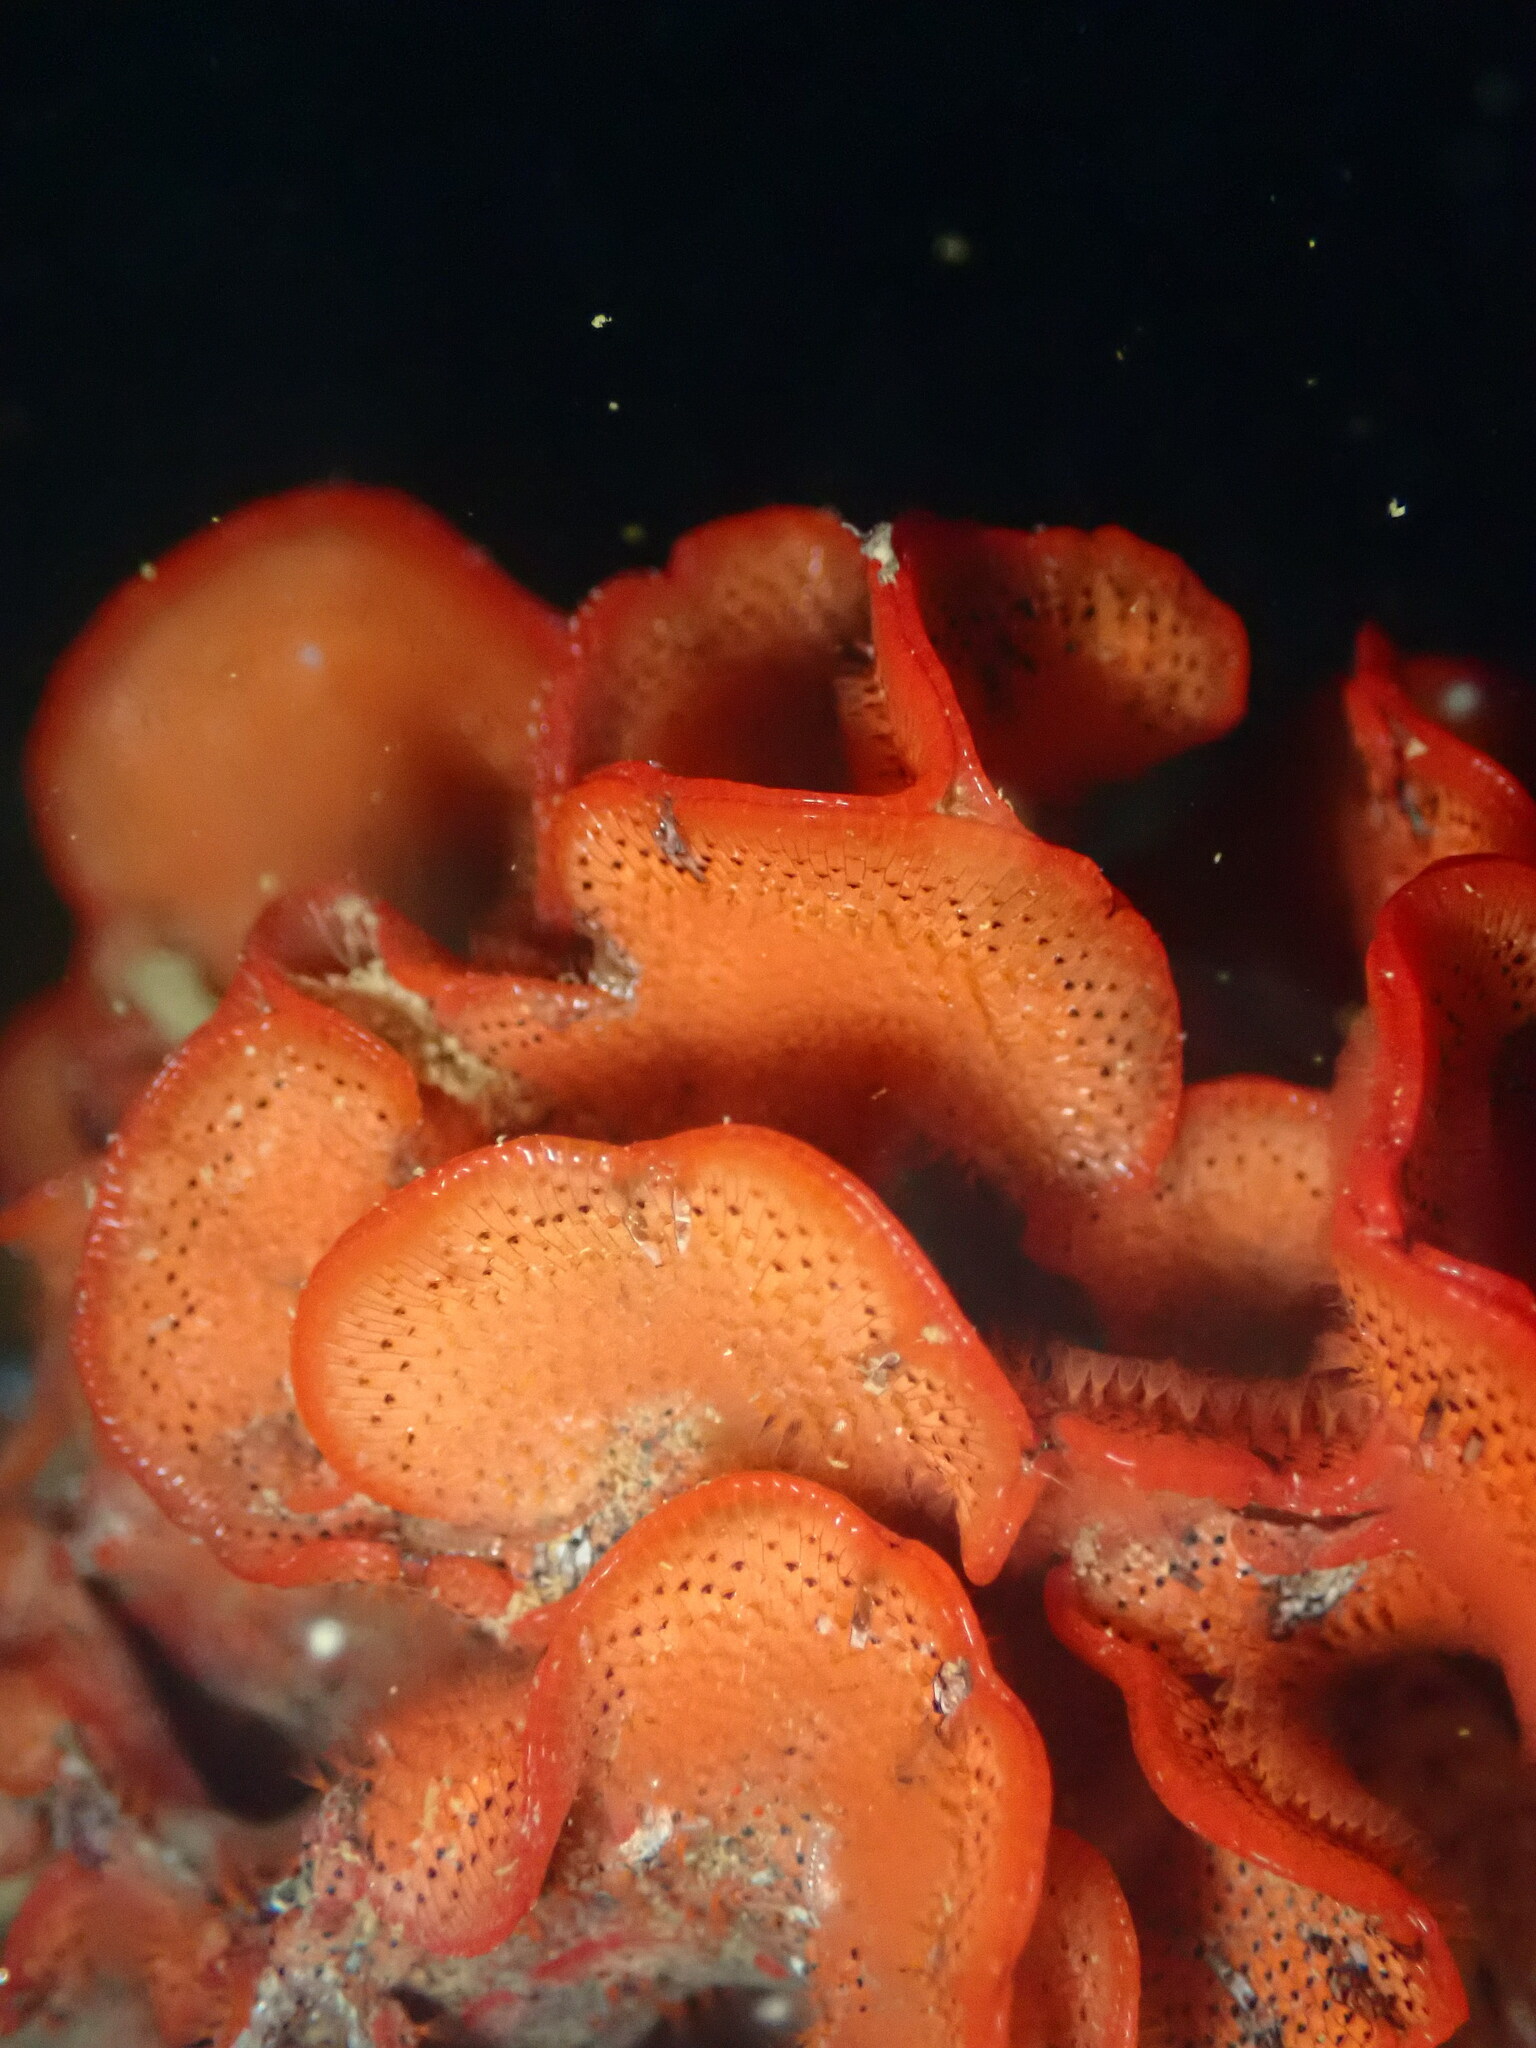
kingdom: Animalia
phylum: Bryozoa
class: Gymnolaemata
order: Cheilostomatida
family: Watersiporidae
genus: Watersipora
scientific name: Watersipora subtorquata
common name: Bryozoan
